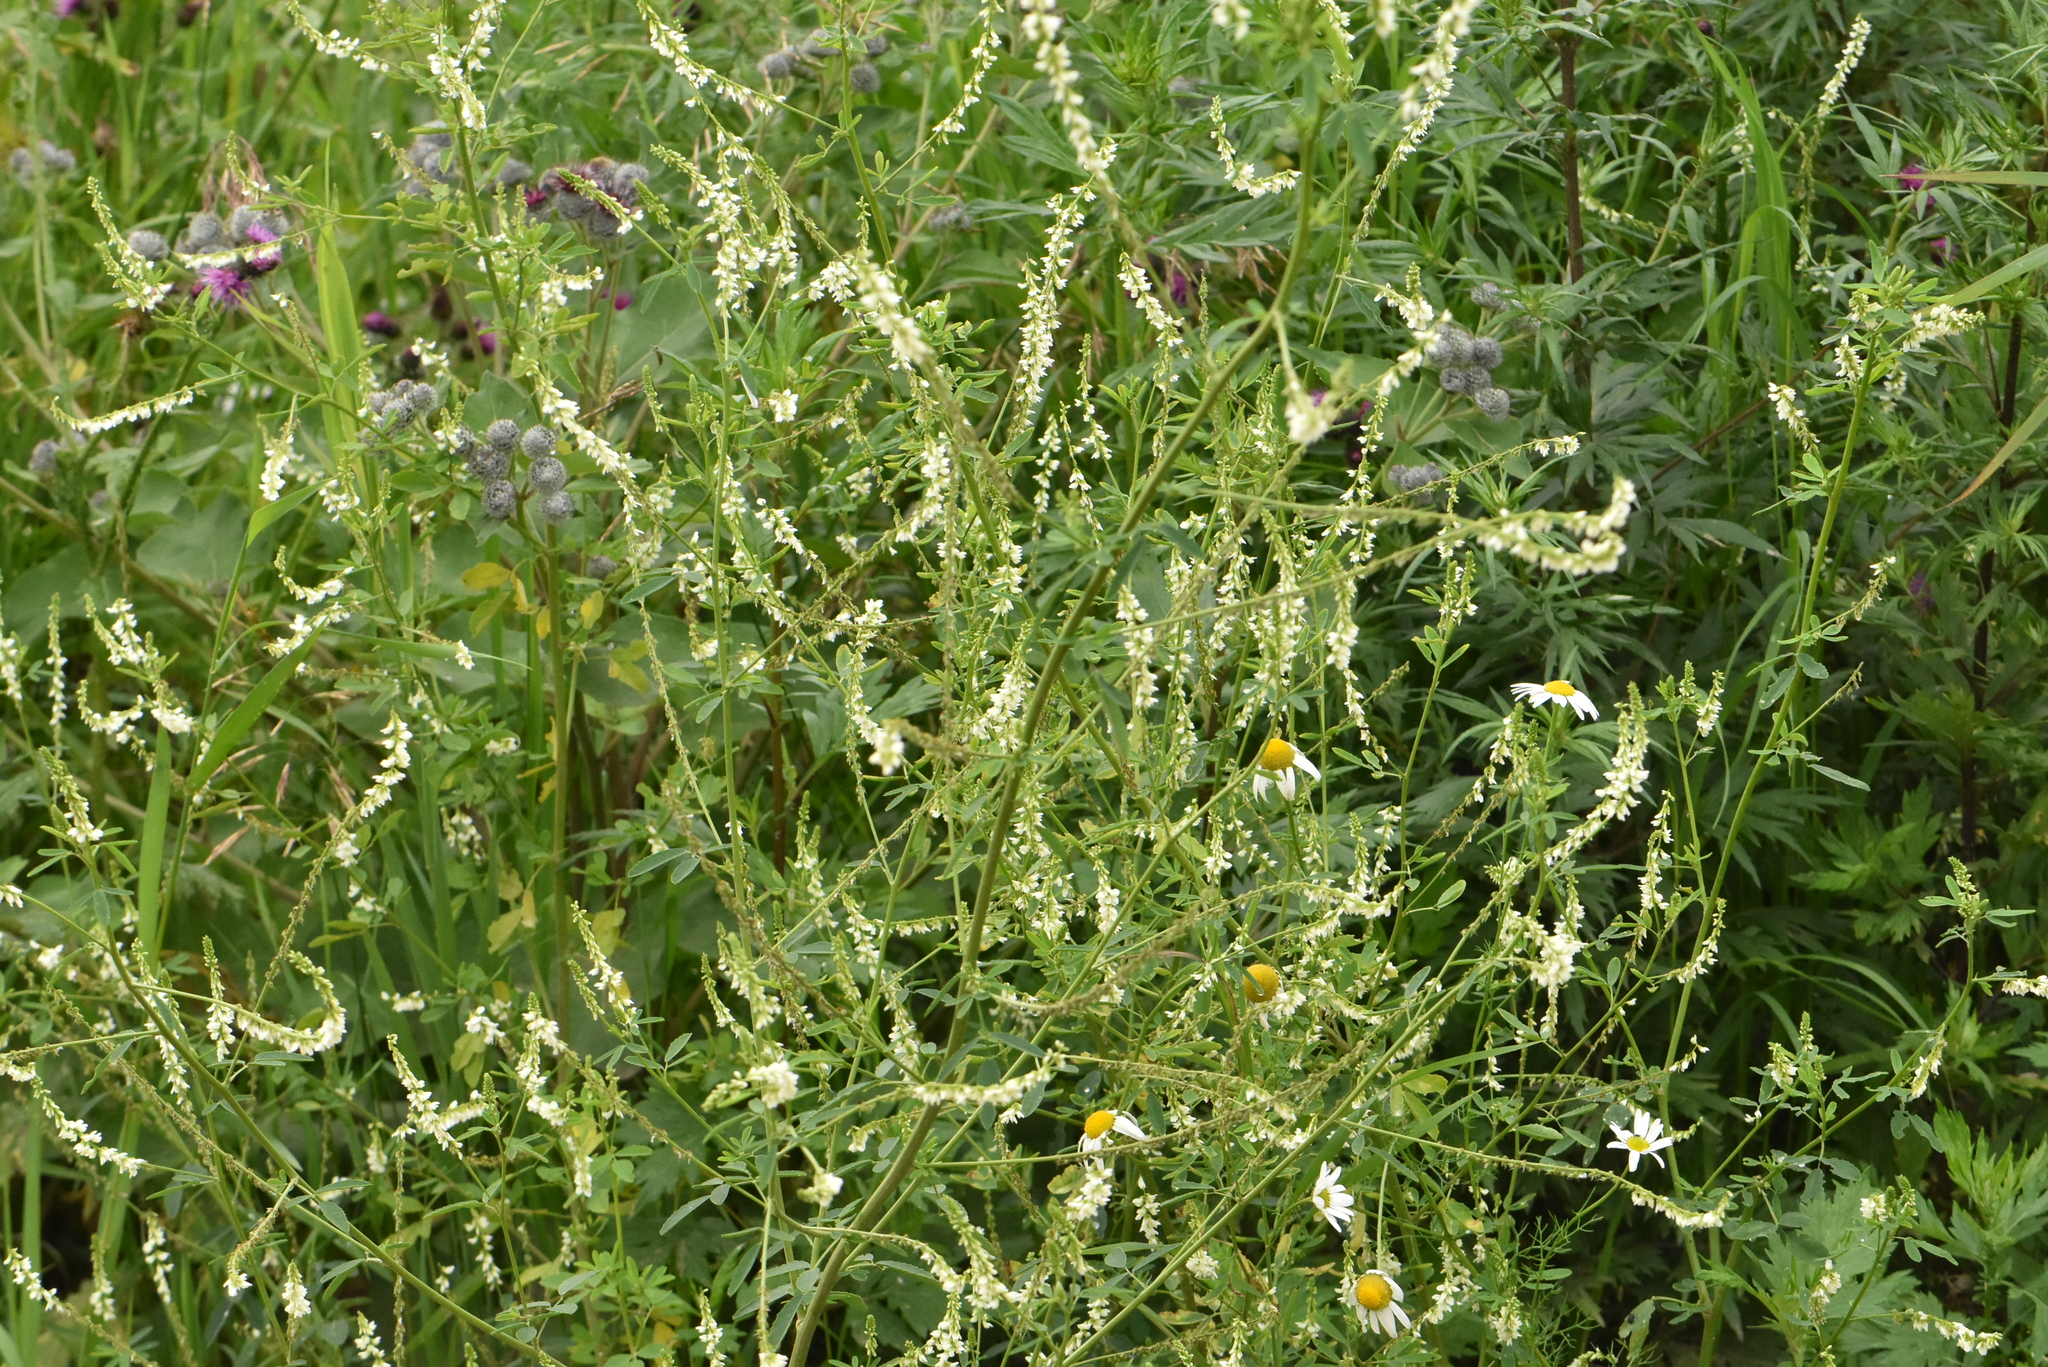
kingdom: Plantae
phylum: Tracheophyta
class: Magnoliopsida
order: Fabales
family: Fabaceae
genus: Melilotus
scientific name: Melilotus albus
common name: White melilot
